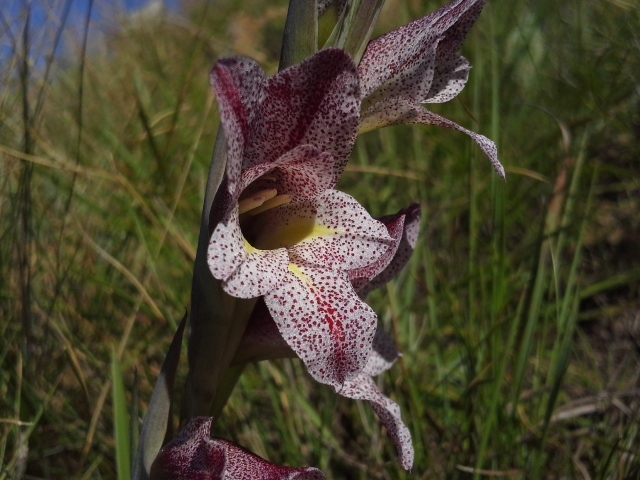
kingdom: Plantae
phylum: Tracheophyta
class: Liliopsida
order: Asparagales
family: Iridaceae
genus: Gladiolus
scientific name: Gladiolus ecklonii
